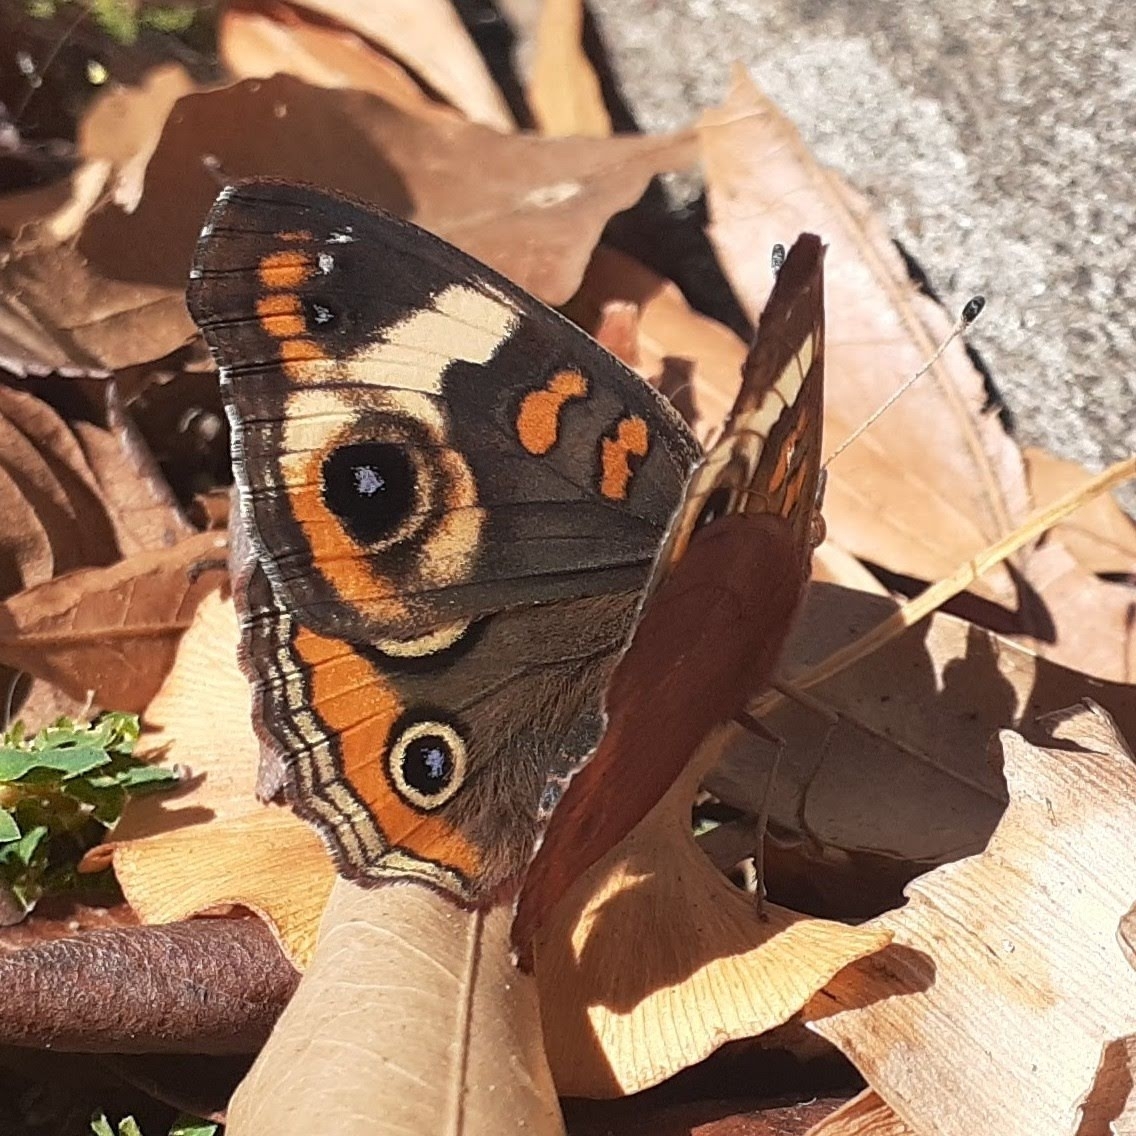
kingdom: Animalia
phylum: Arthropoda
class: Insecta
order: Lepidoptera
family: Nymphalidae
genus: Junonia
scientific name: Junonia coenia
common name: Common buckeye
